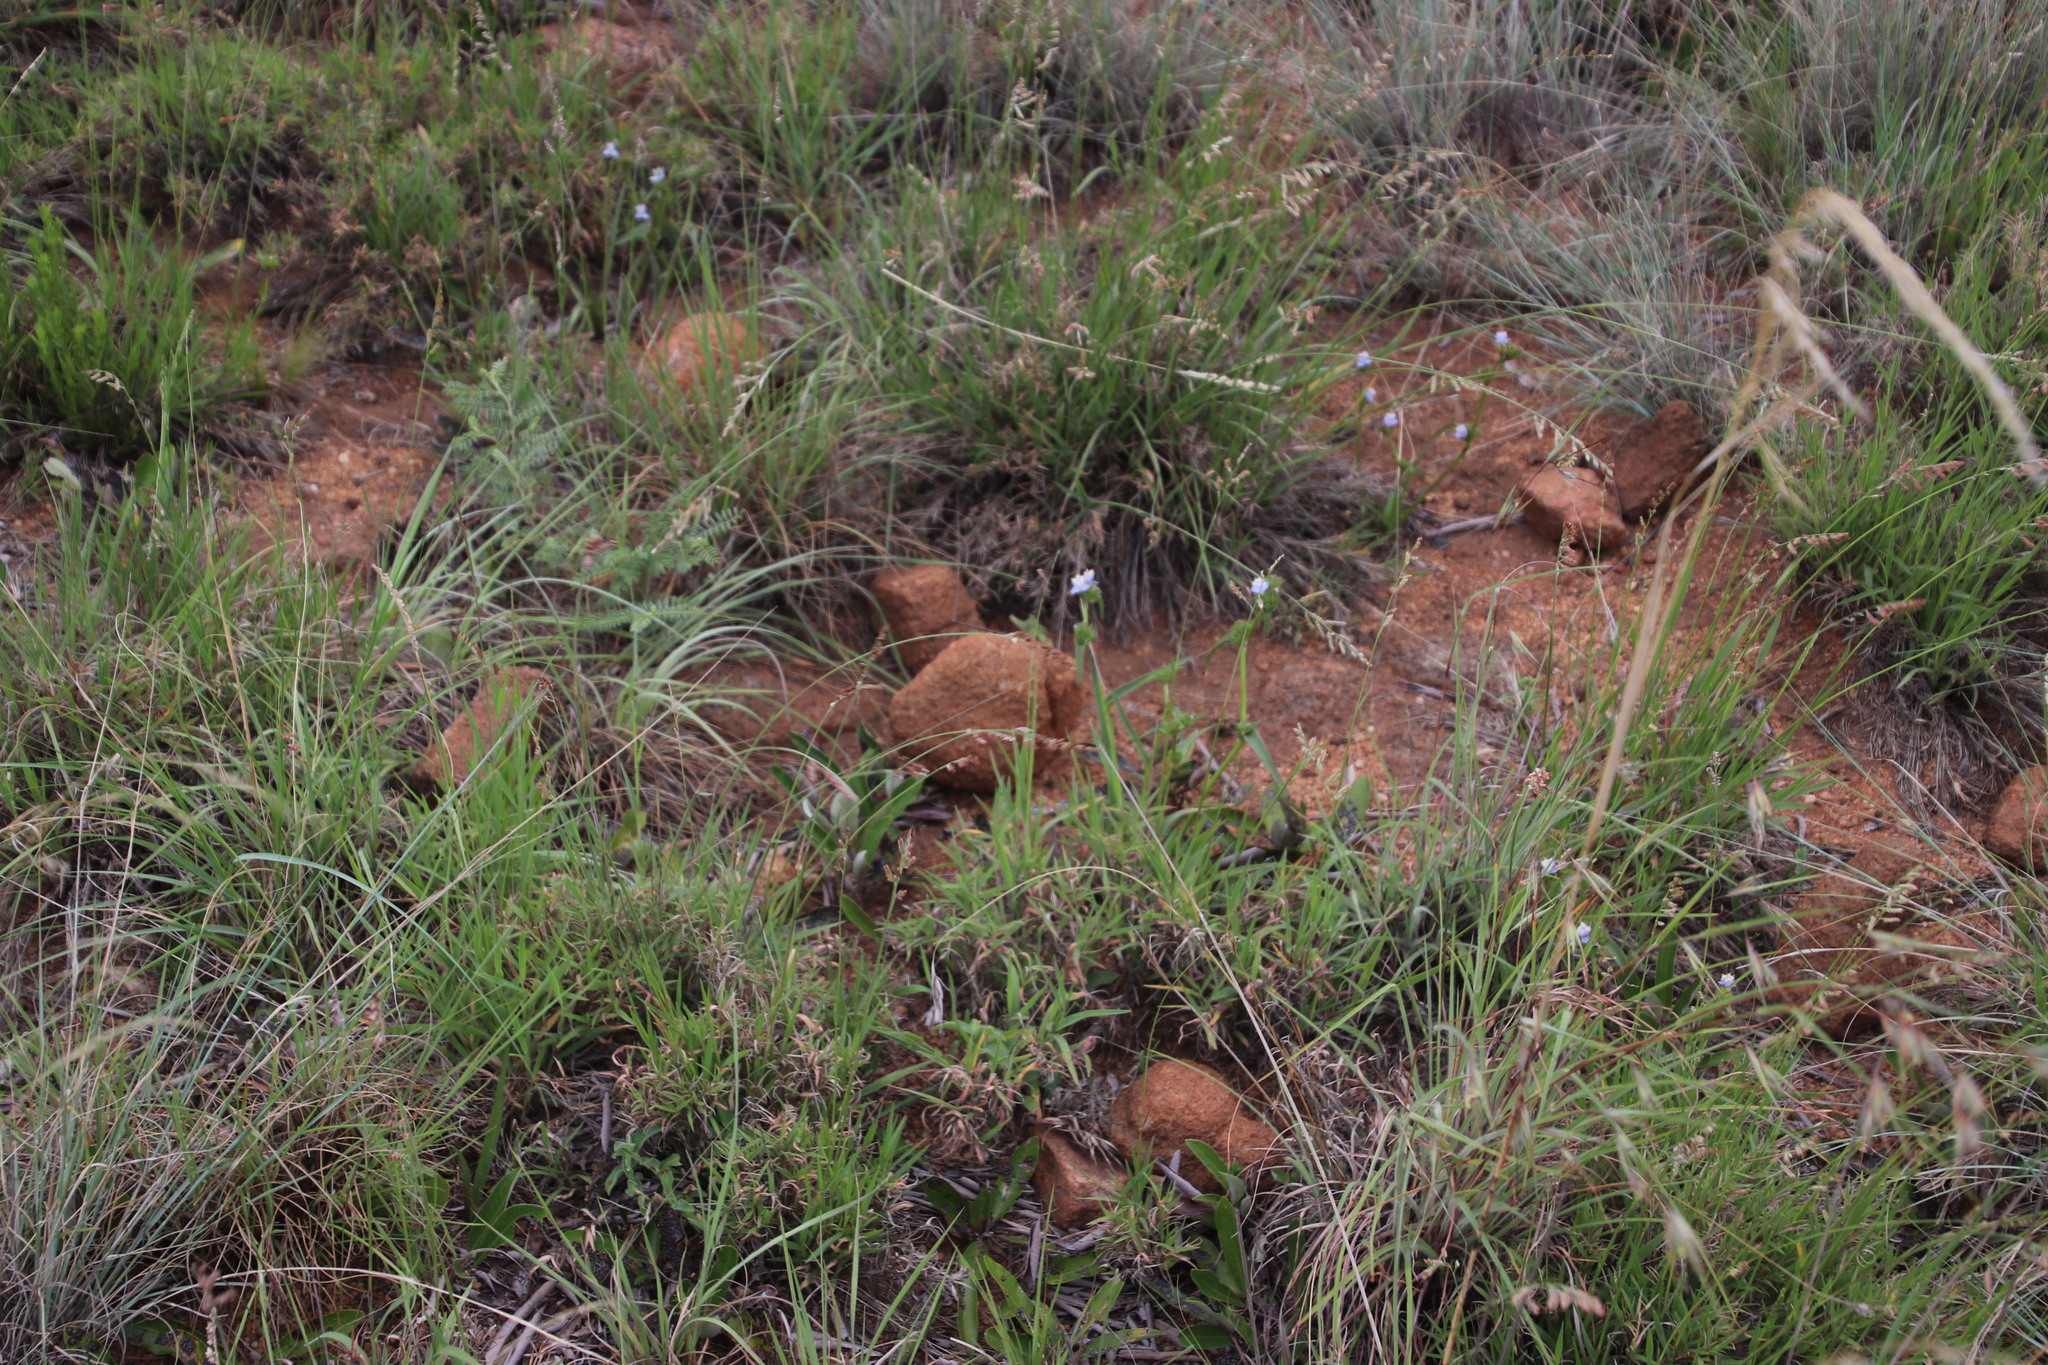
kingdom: Plantae
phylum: Tracheophyta
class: Liliopsida
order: Commelinales
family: Commelinaceae
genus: Cyanotis
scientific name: Cyanotis speciosa
